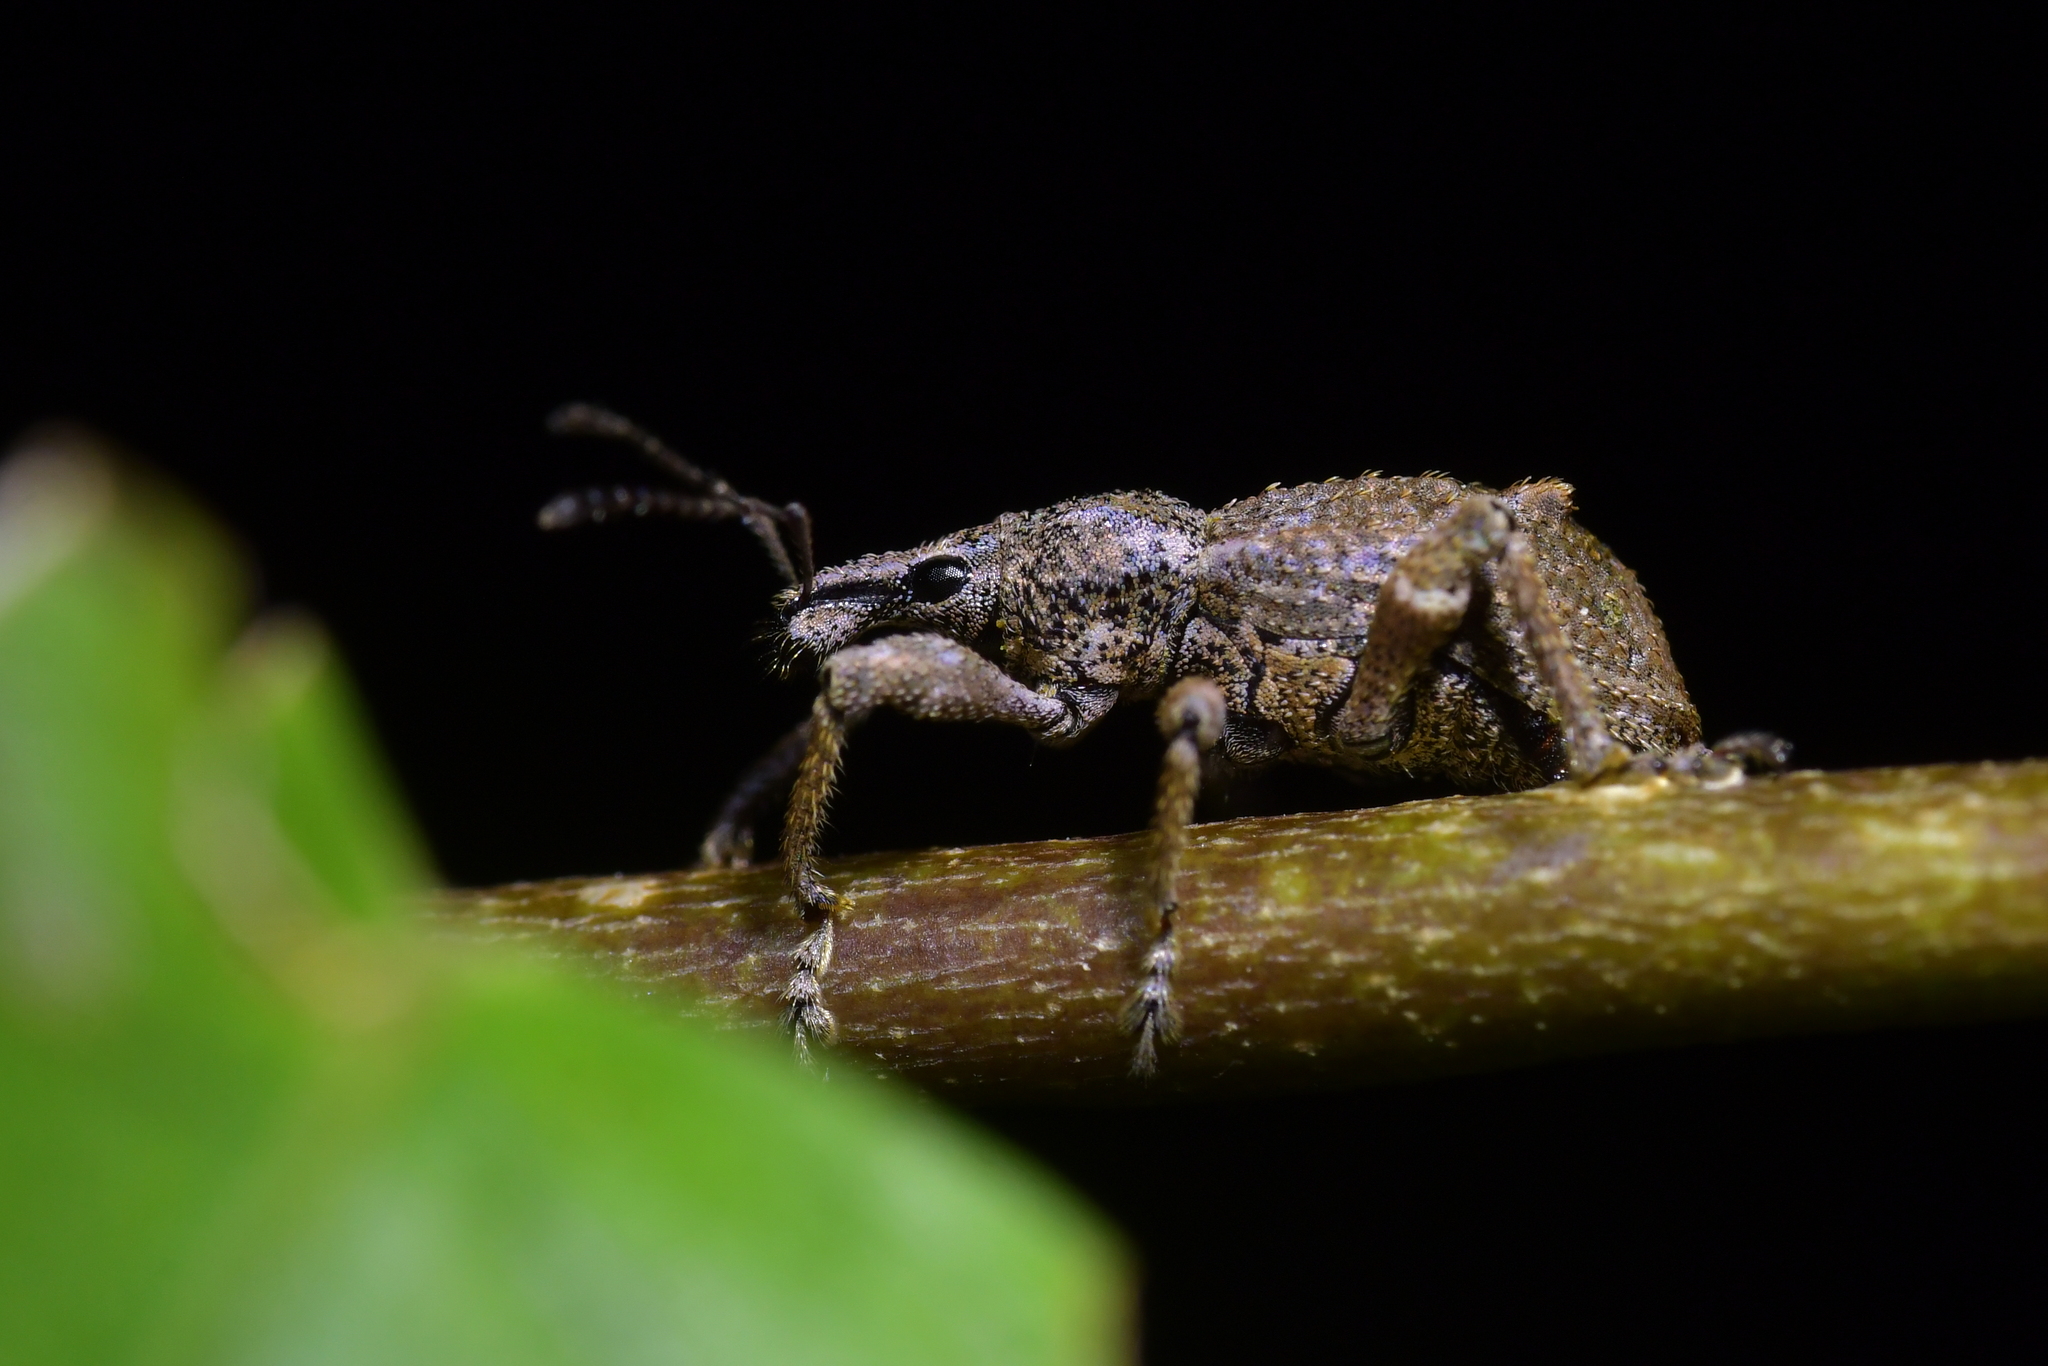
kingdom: Animalia
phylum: Arthropoda
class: Insecta
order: Coleoptera
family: Curculionidae
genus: Catoptes
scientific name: Catoptes binodis
